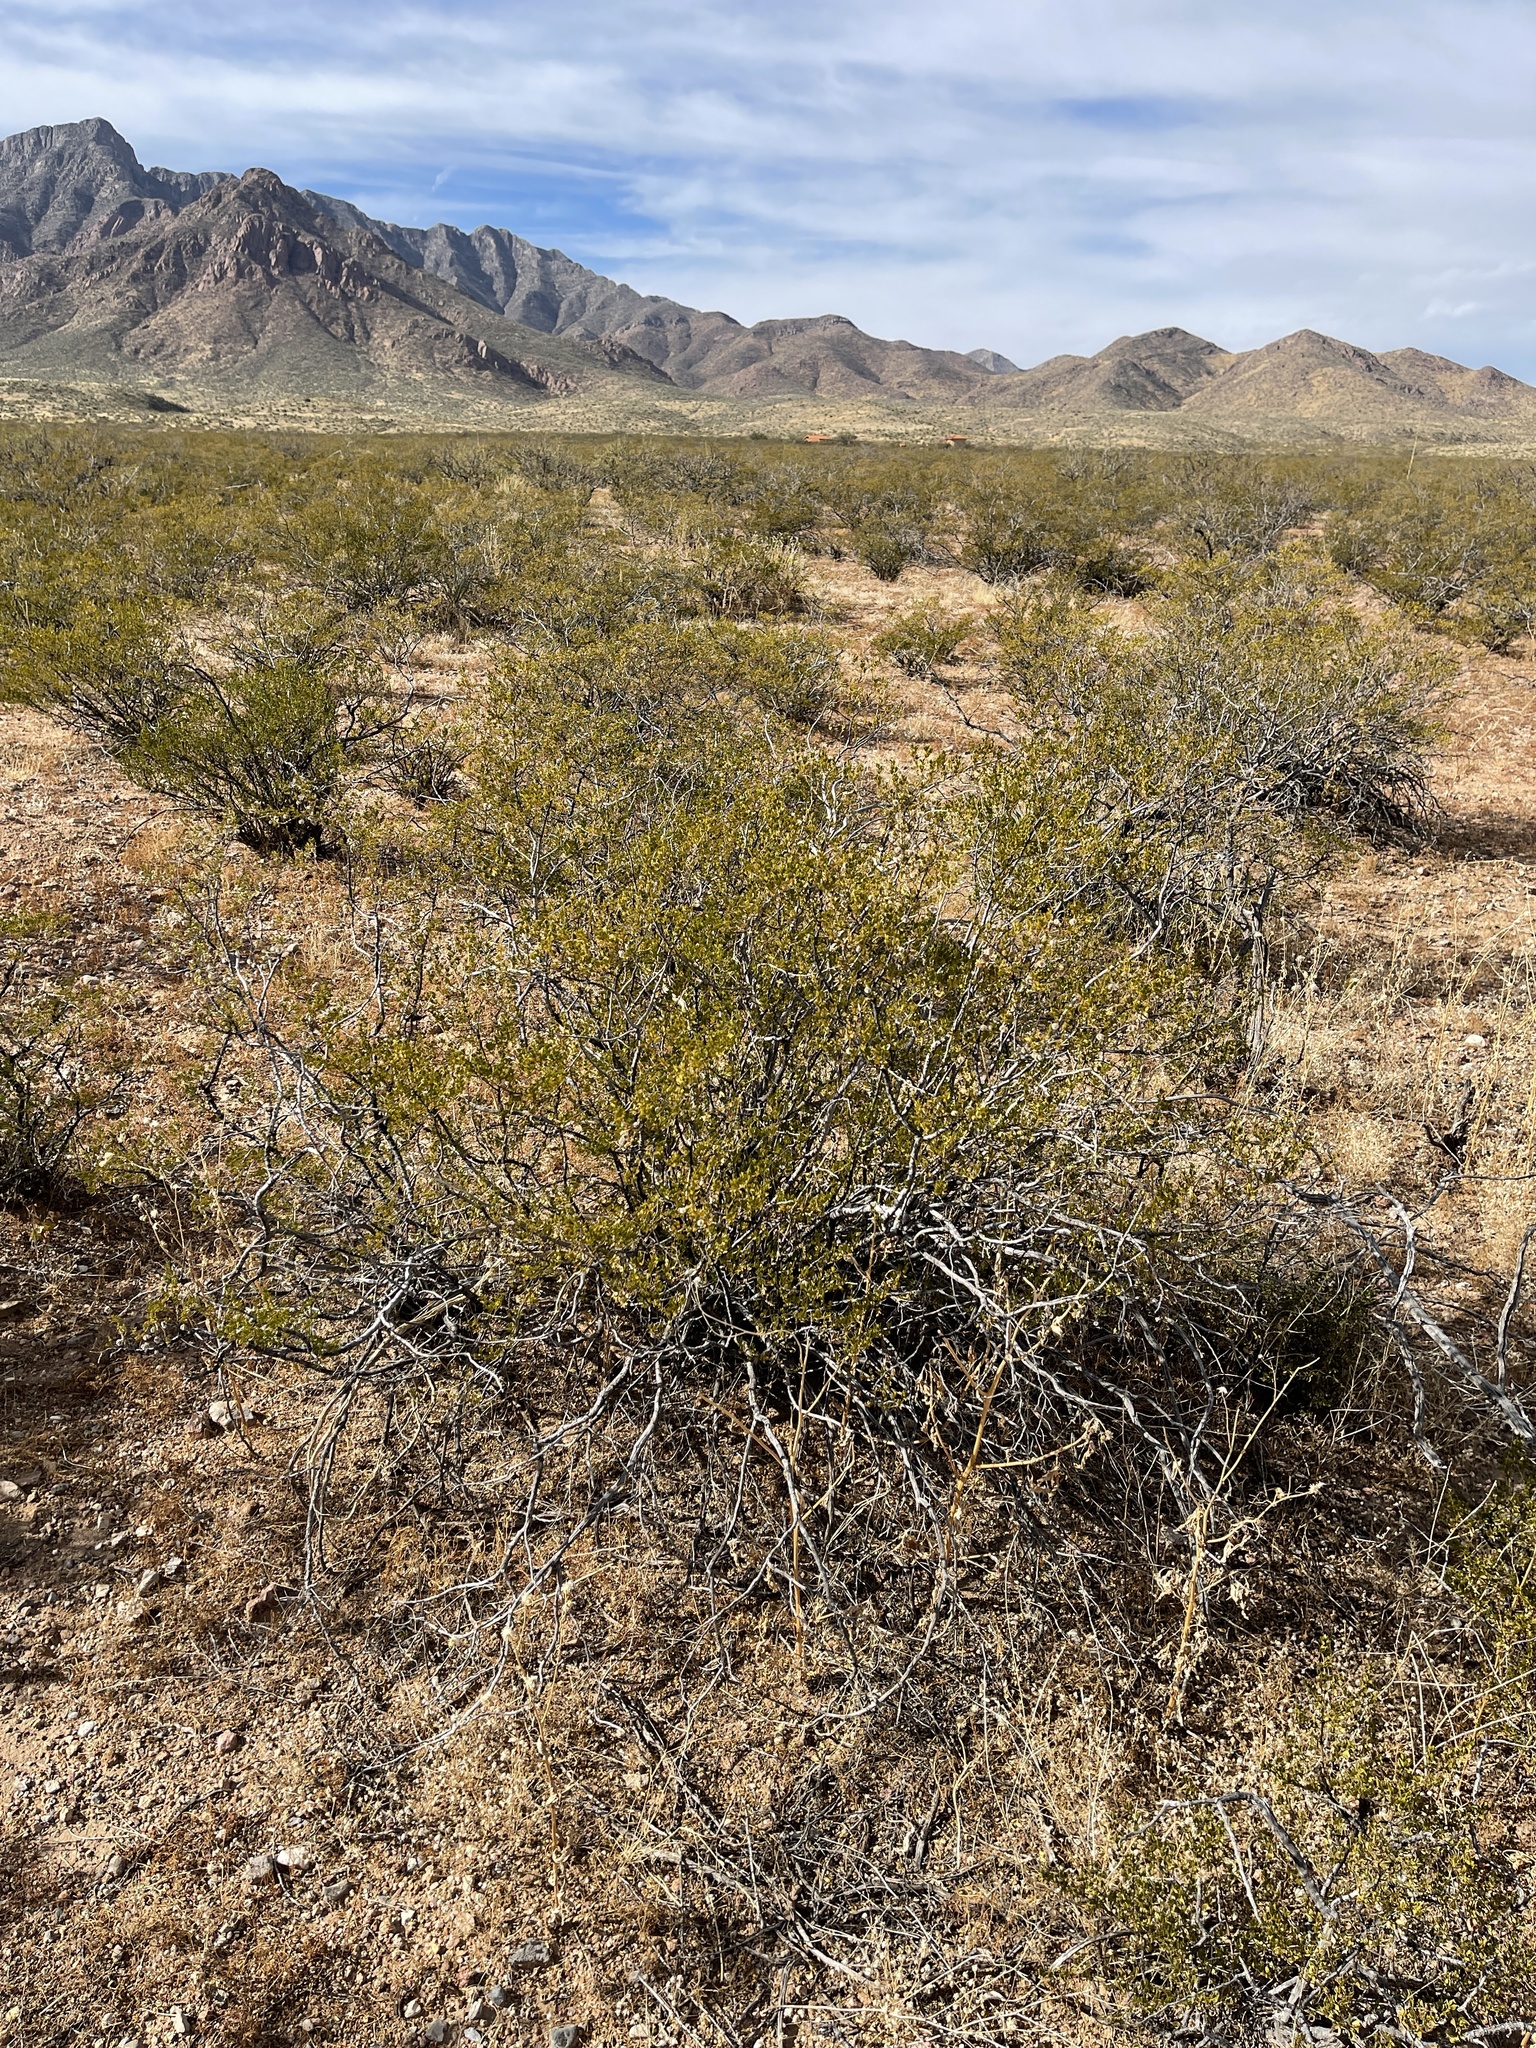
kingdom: Plantae
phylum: Tracheophyta
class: Magnoliopsida
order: Zygophyllales
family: Zygophyllaceae
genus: Larrea
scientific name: Larrea tridentata
